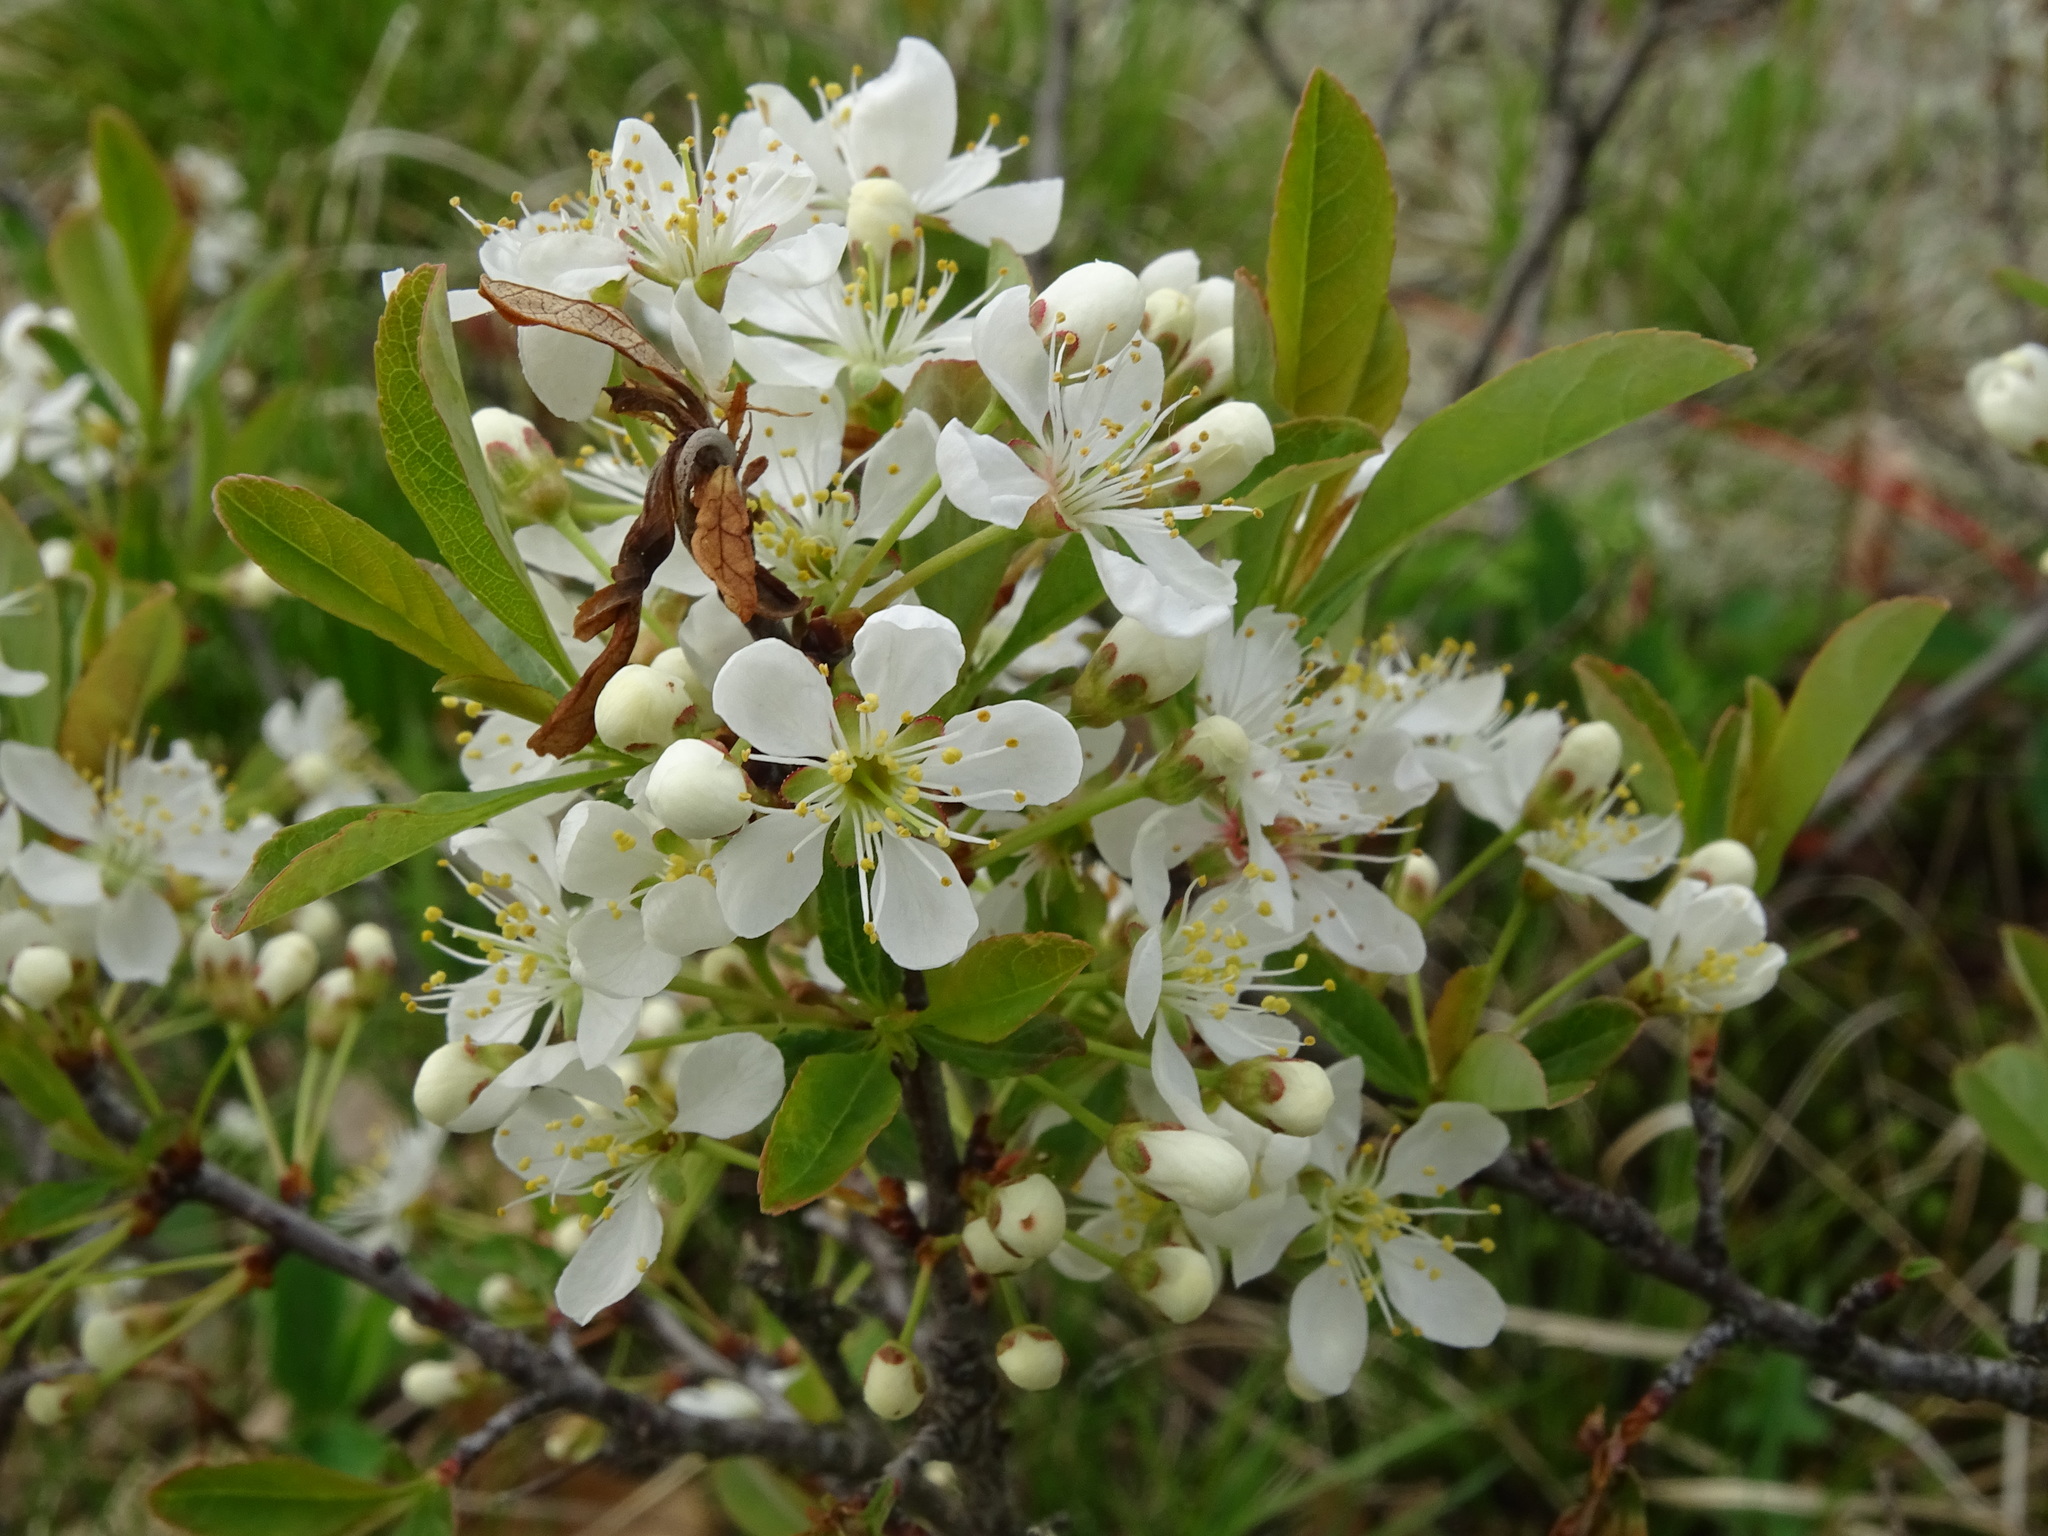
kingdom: Plantae
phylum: Tracheophyta
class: Magnoliopsida
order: Rosales
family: Rosaceae
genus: Prunus
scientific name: Prunus pumila
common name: Dwarf cherry
